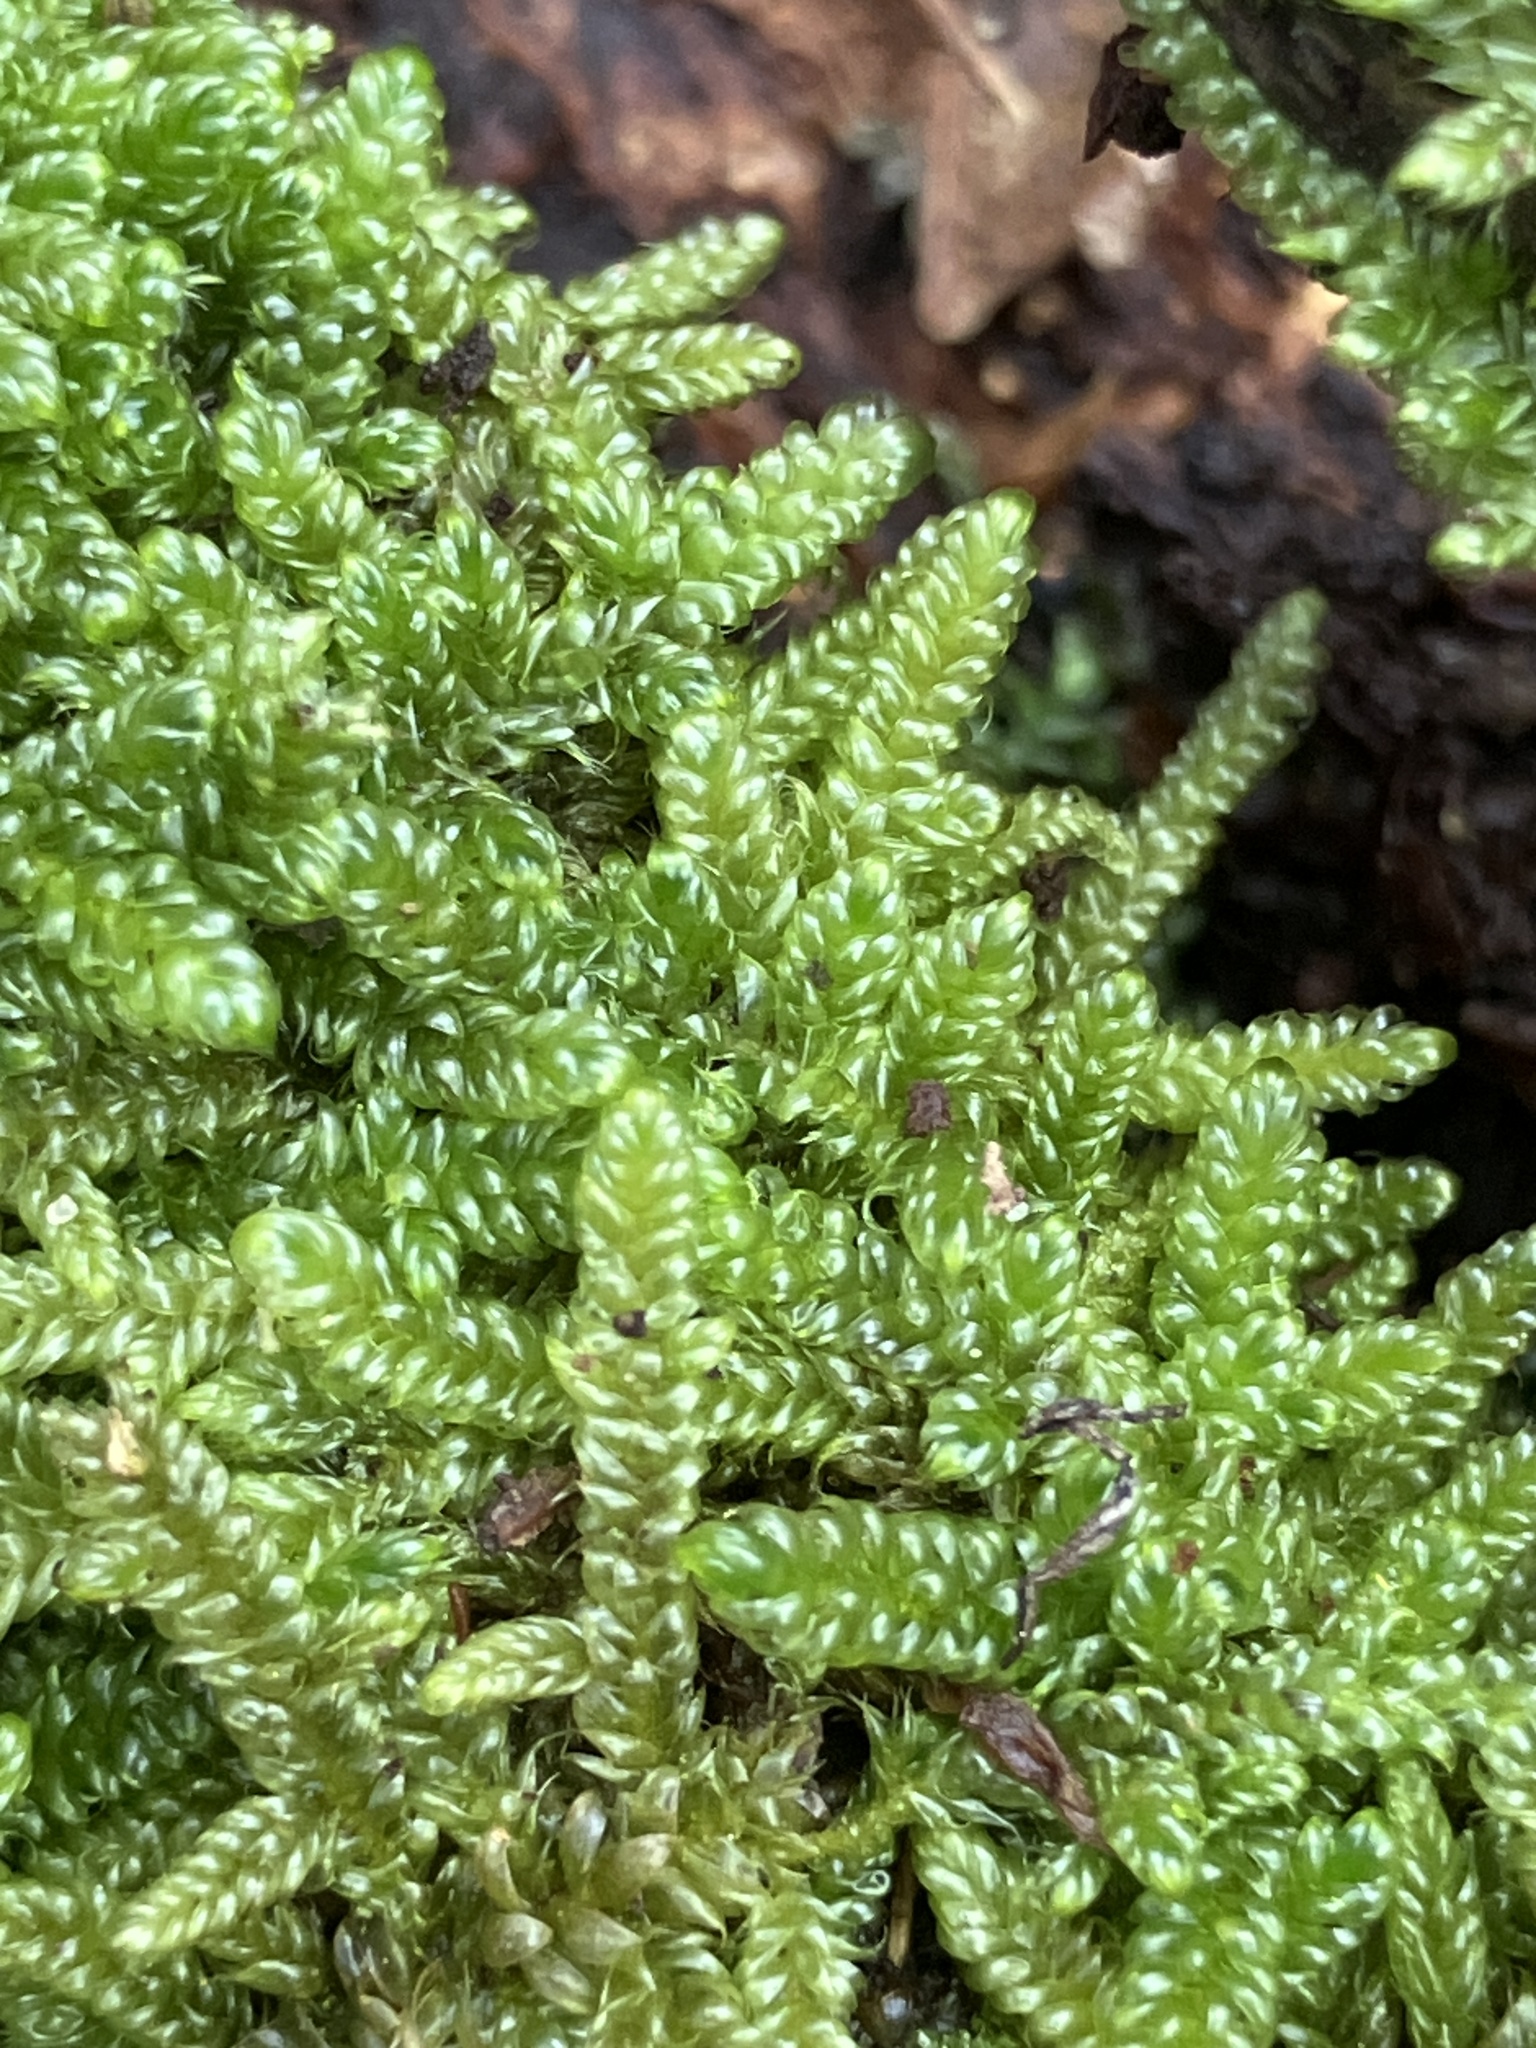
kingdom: Plantae
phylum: Bryophyta
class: Bryopsida
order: Hypnales
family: Hypnaceae
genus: Hypnum
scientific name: Hypnum cupressiforme
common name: Cypress-leaved plait-moss
